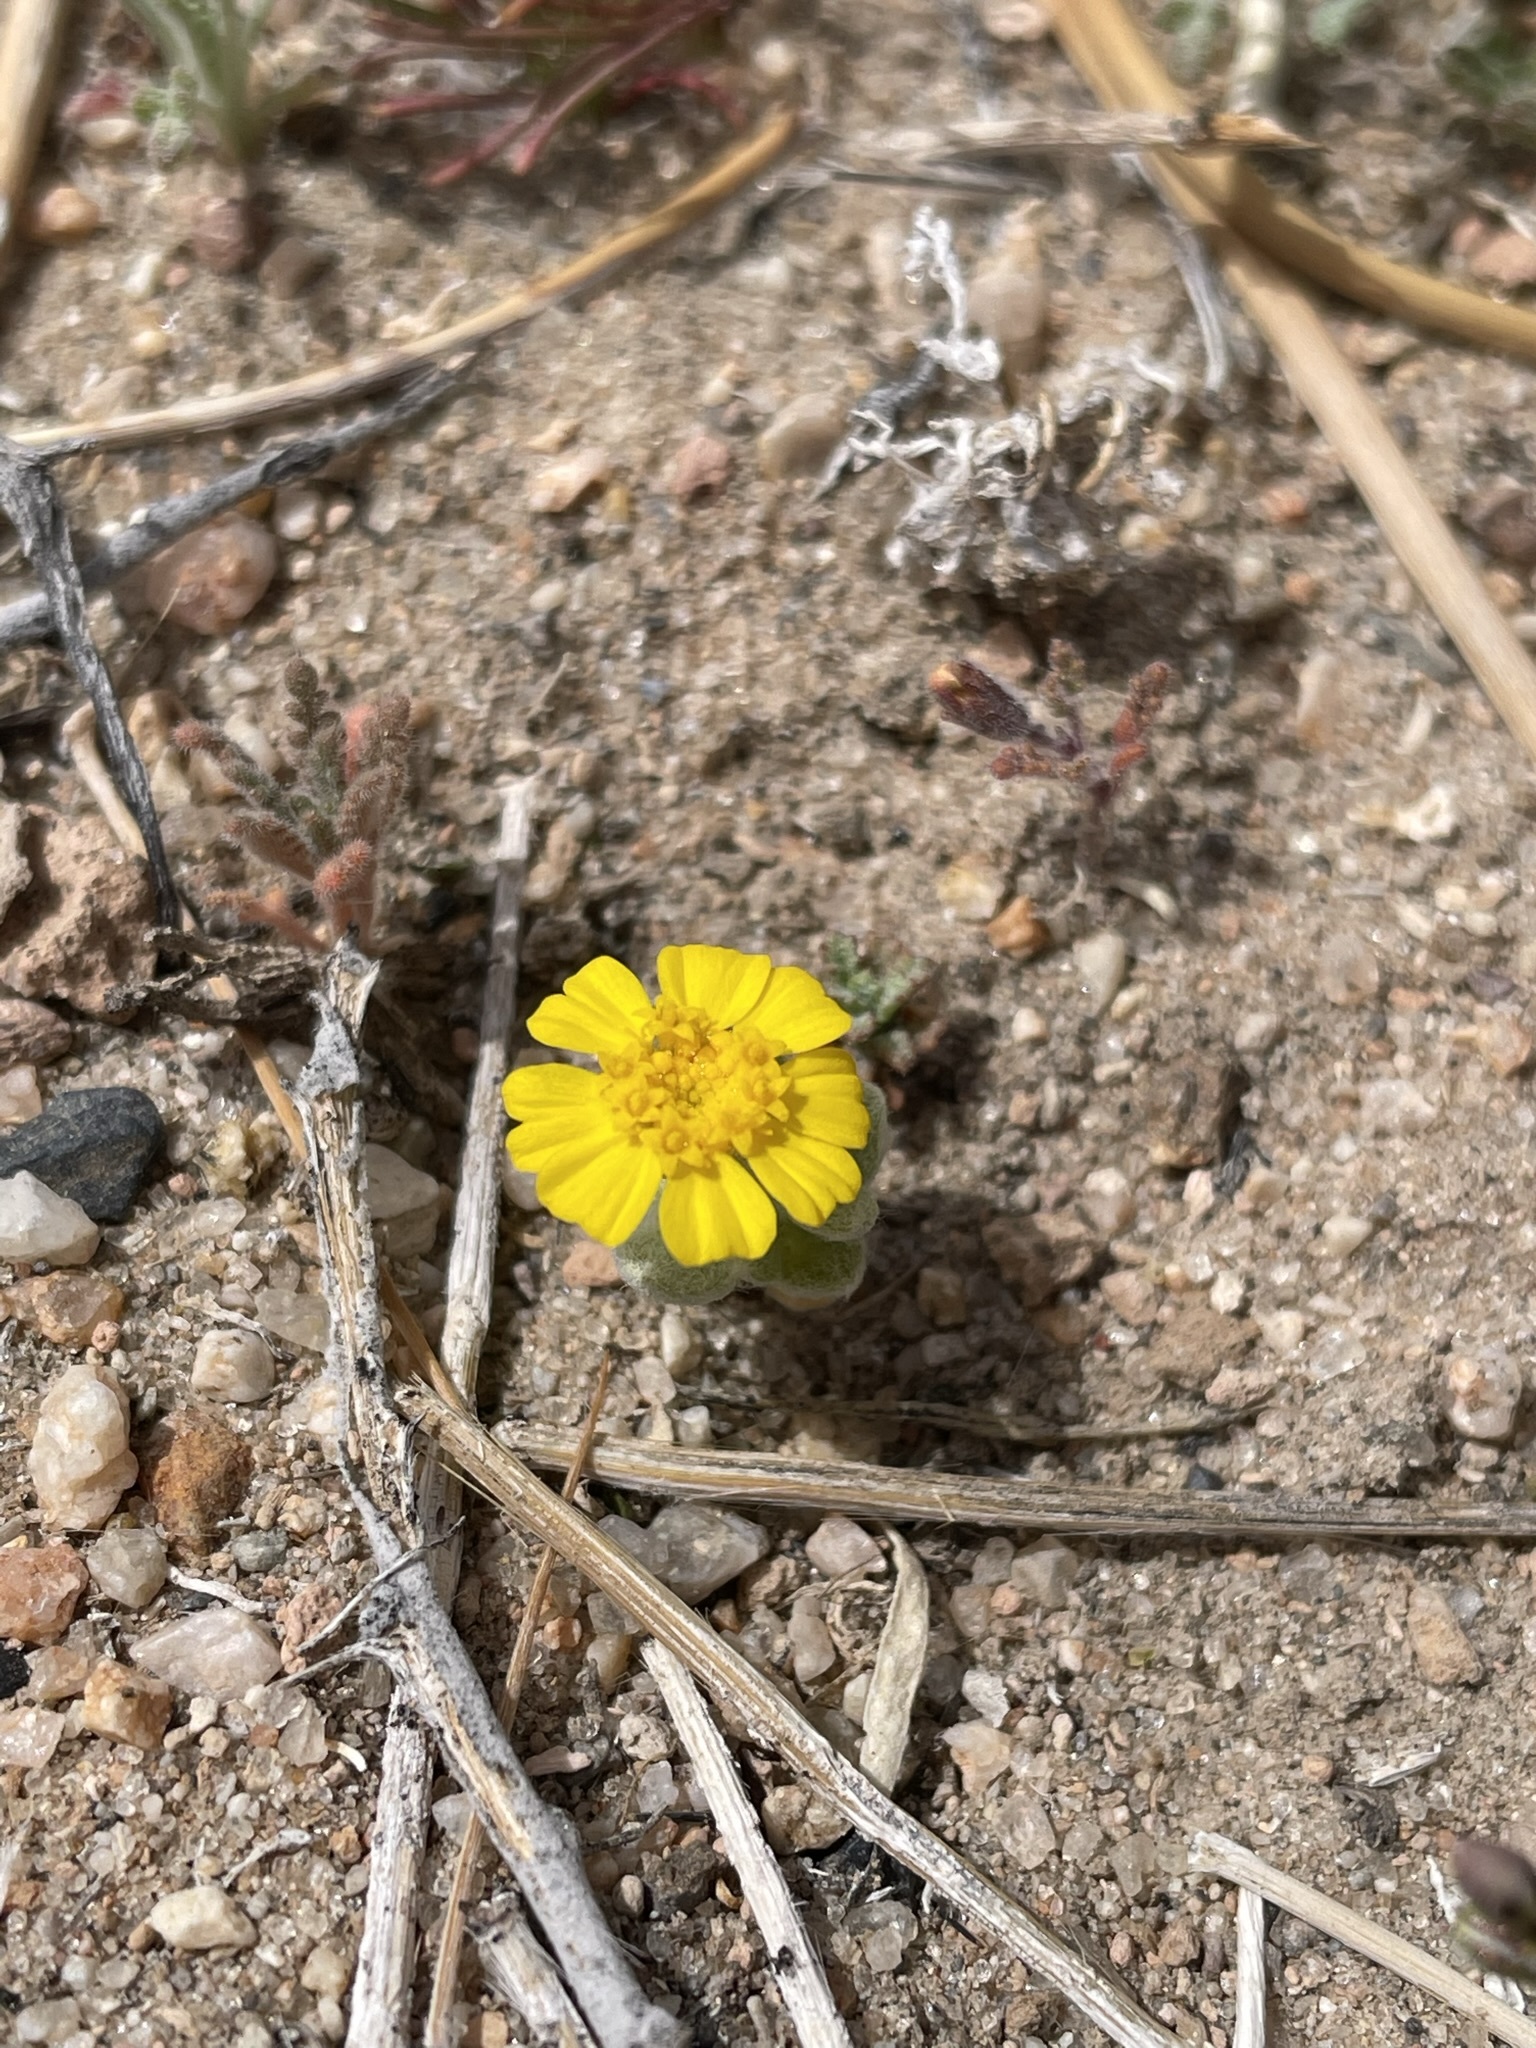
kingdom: Plantae
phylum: Tracheophyta
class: Magnoliopsida
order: Asterales
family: Asteraceae
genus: Eriophyllum
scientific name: Eriophyllum wallacei
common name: Wallace's woolly daisy
